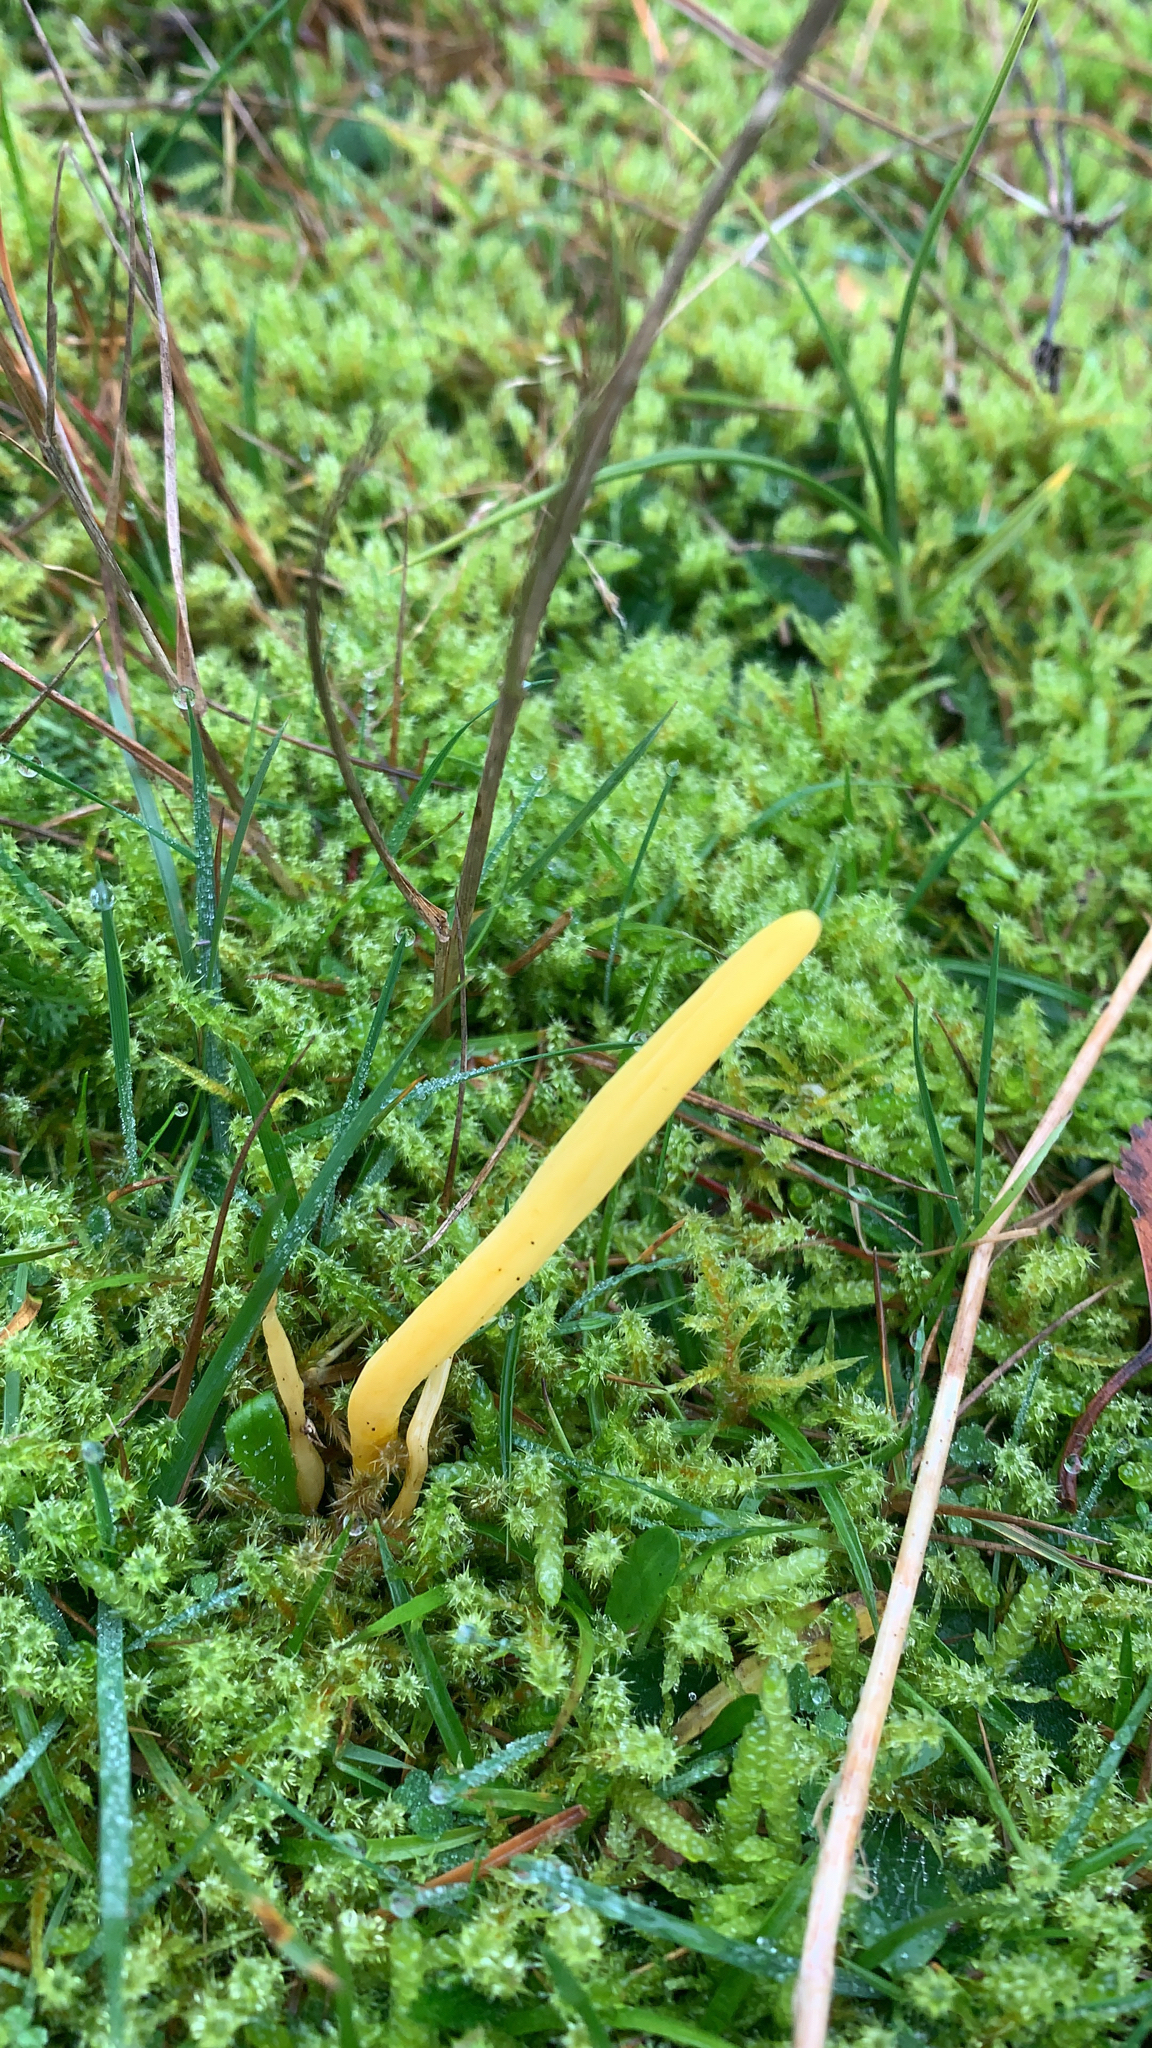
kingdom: Fungi
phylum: Basidiomycota
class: Agaricomycetes
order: Agaricales
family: Clavariaceae
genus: Clavulinopsis
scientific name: Clavulinopsis helvola
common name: Yellow club
